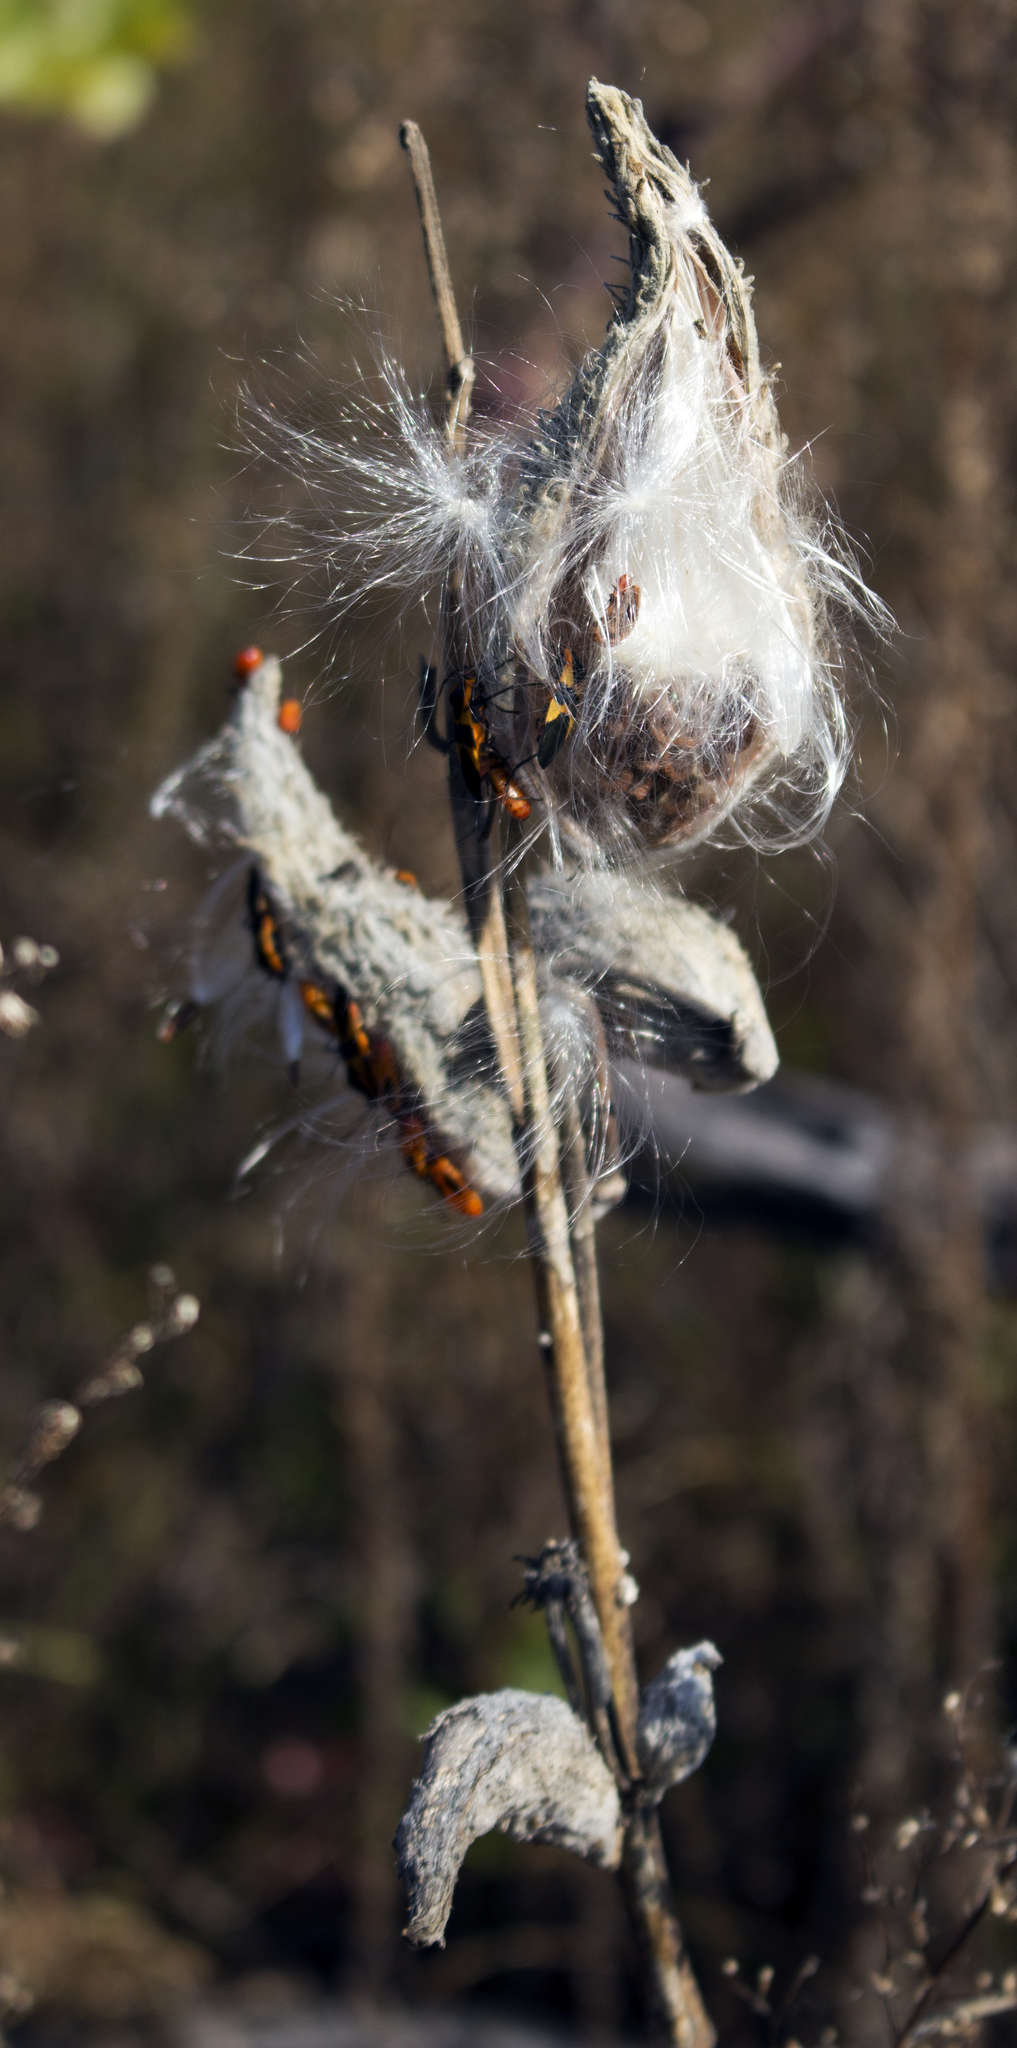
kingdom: Plantae
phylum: Tracheophyta
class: Magnoliopsida
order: Gentianales
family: Apocynaceae
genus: Asclepias
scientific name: Asclepias syriaca
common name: Common milkweed
